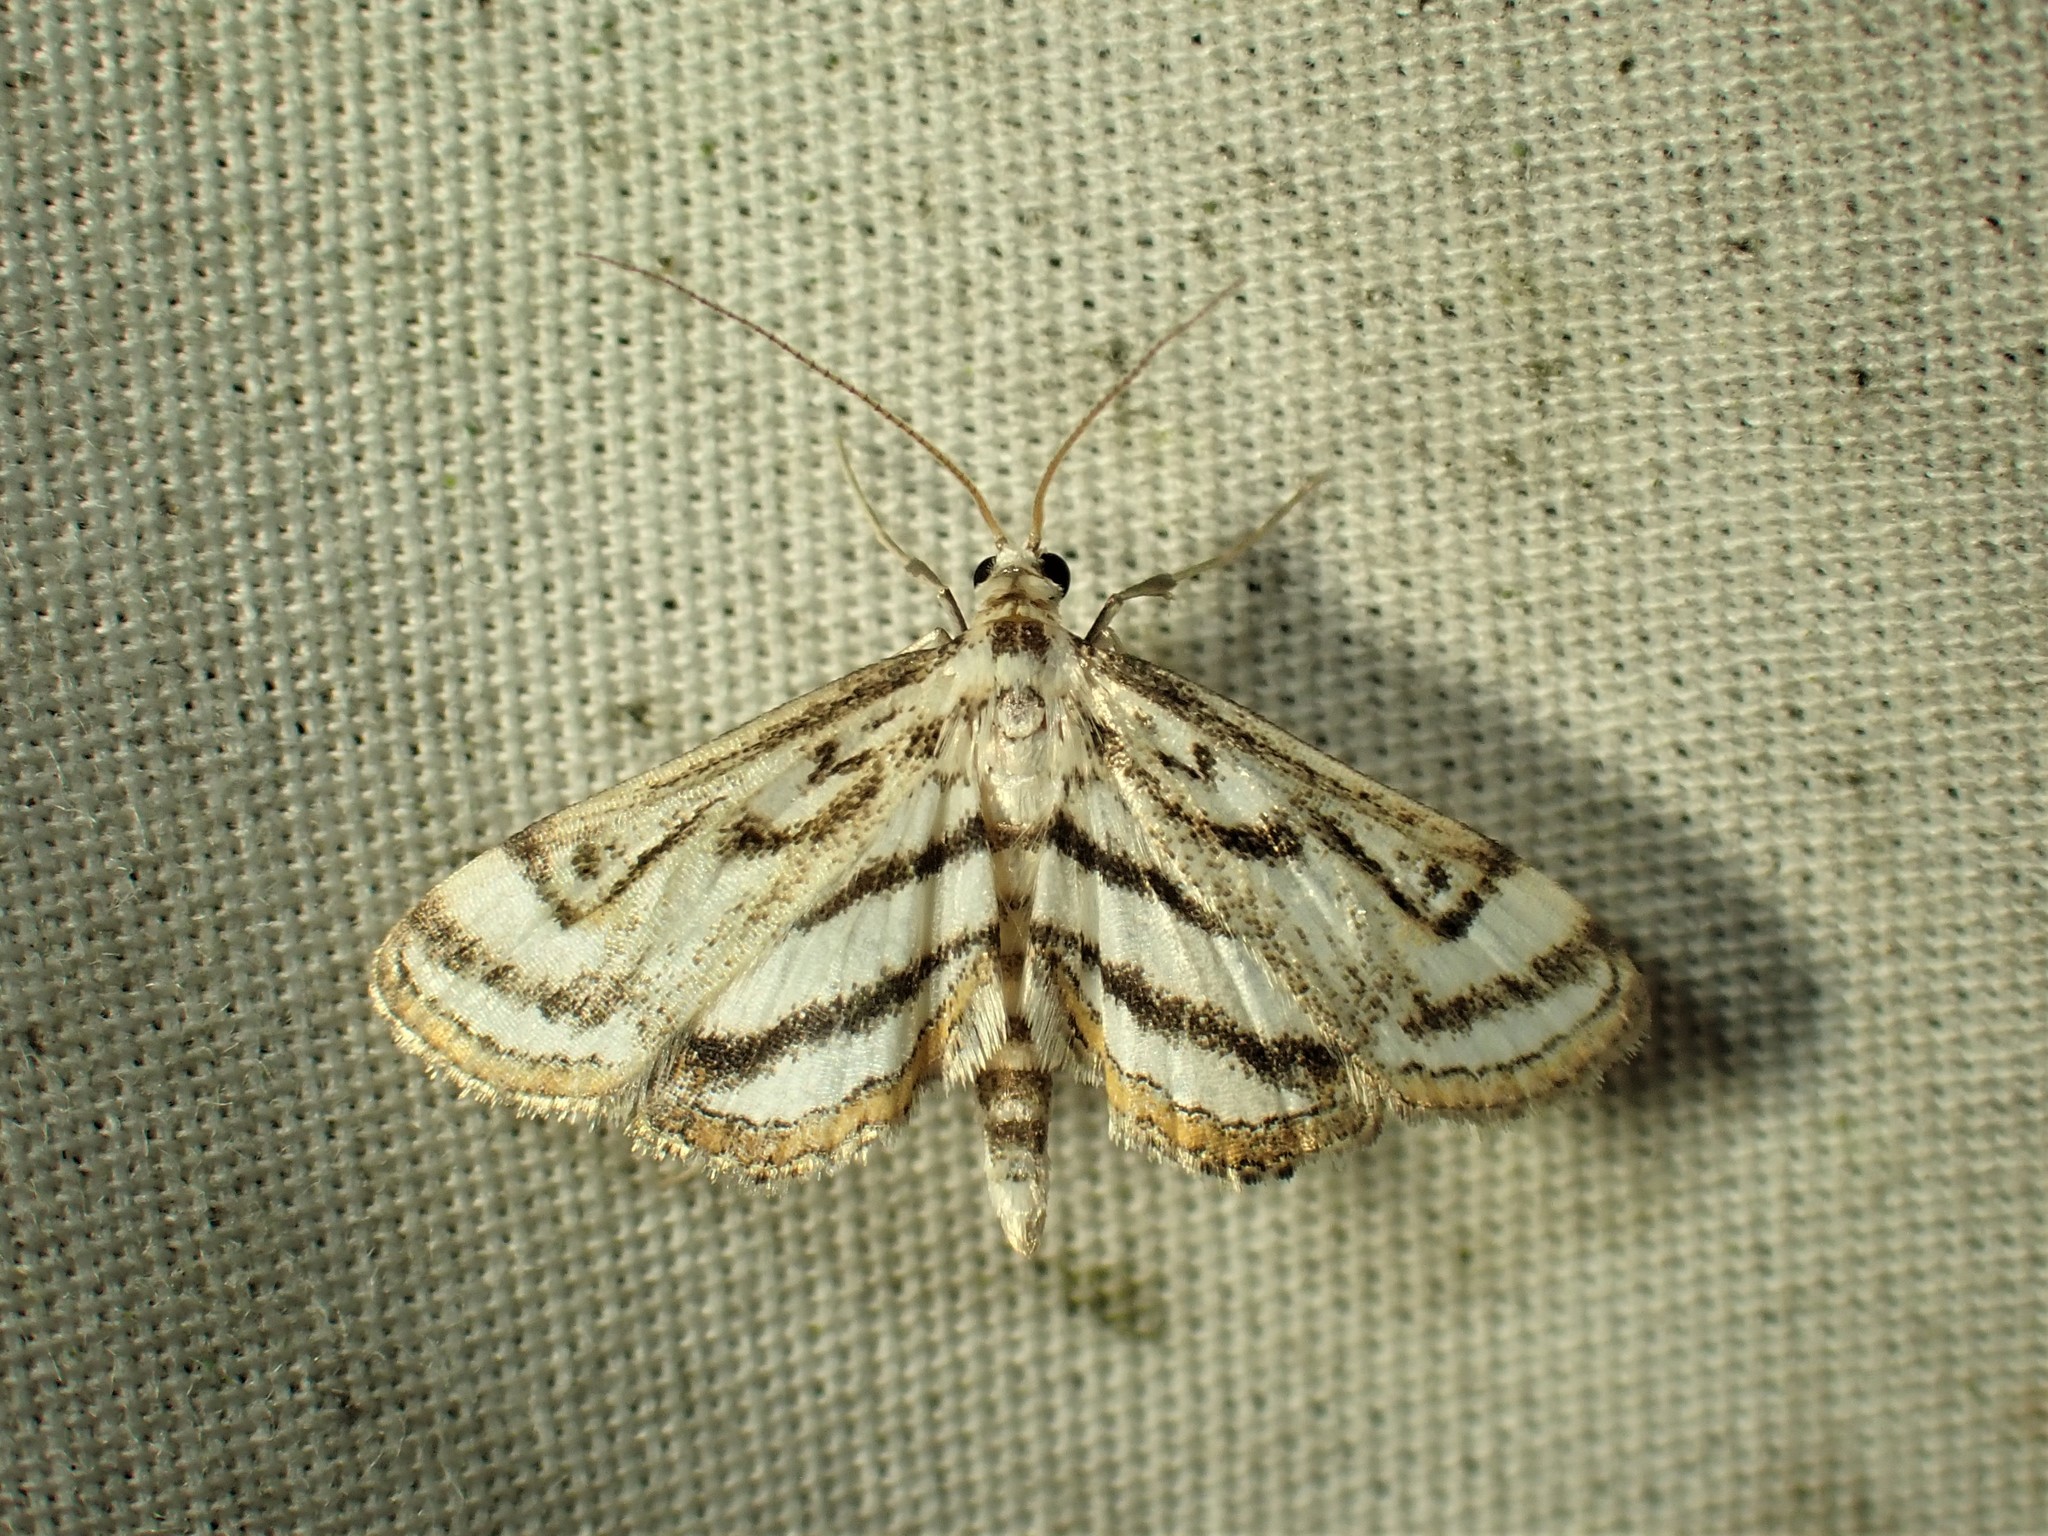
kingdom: Animalia
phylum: Arthropoda
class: Insecta
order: Lepidoptera
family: Crambidae
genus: Parapoynx
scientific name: Parapoynx badiusalis
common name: Chestnut-marked pondweed moth
